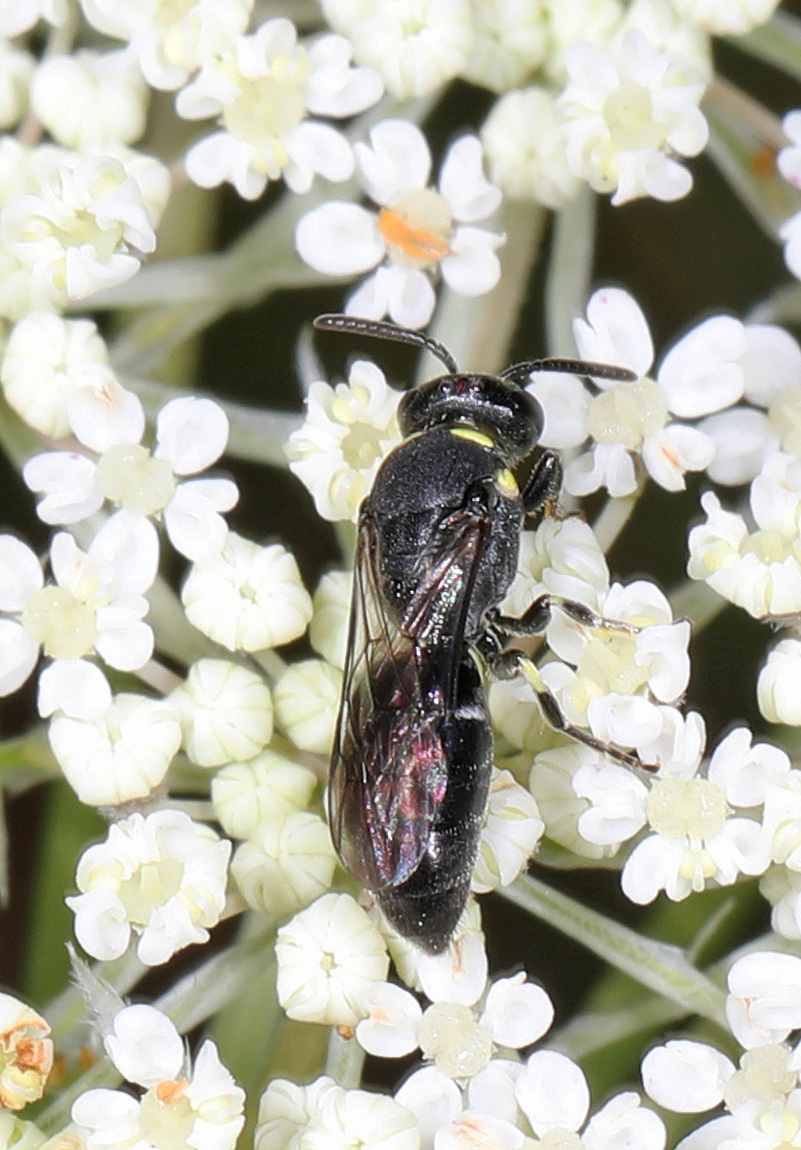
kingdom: Animalia
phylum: Arthropoda
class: Insecta
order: Hymenoptera
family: Colletidae
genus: Hylaeus
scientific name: Hylaeus modestus
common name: Yellow-faced bee
